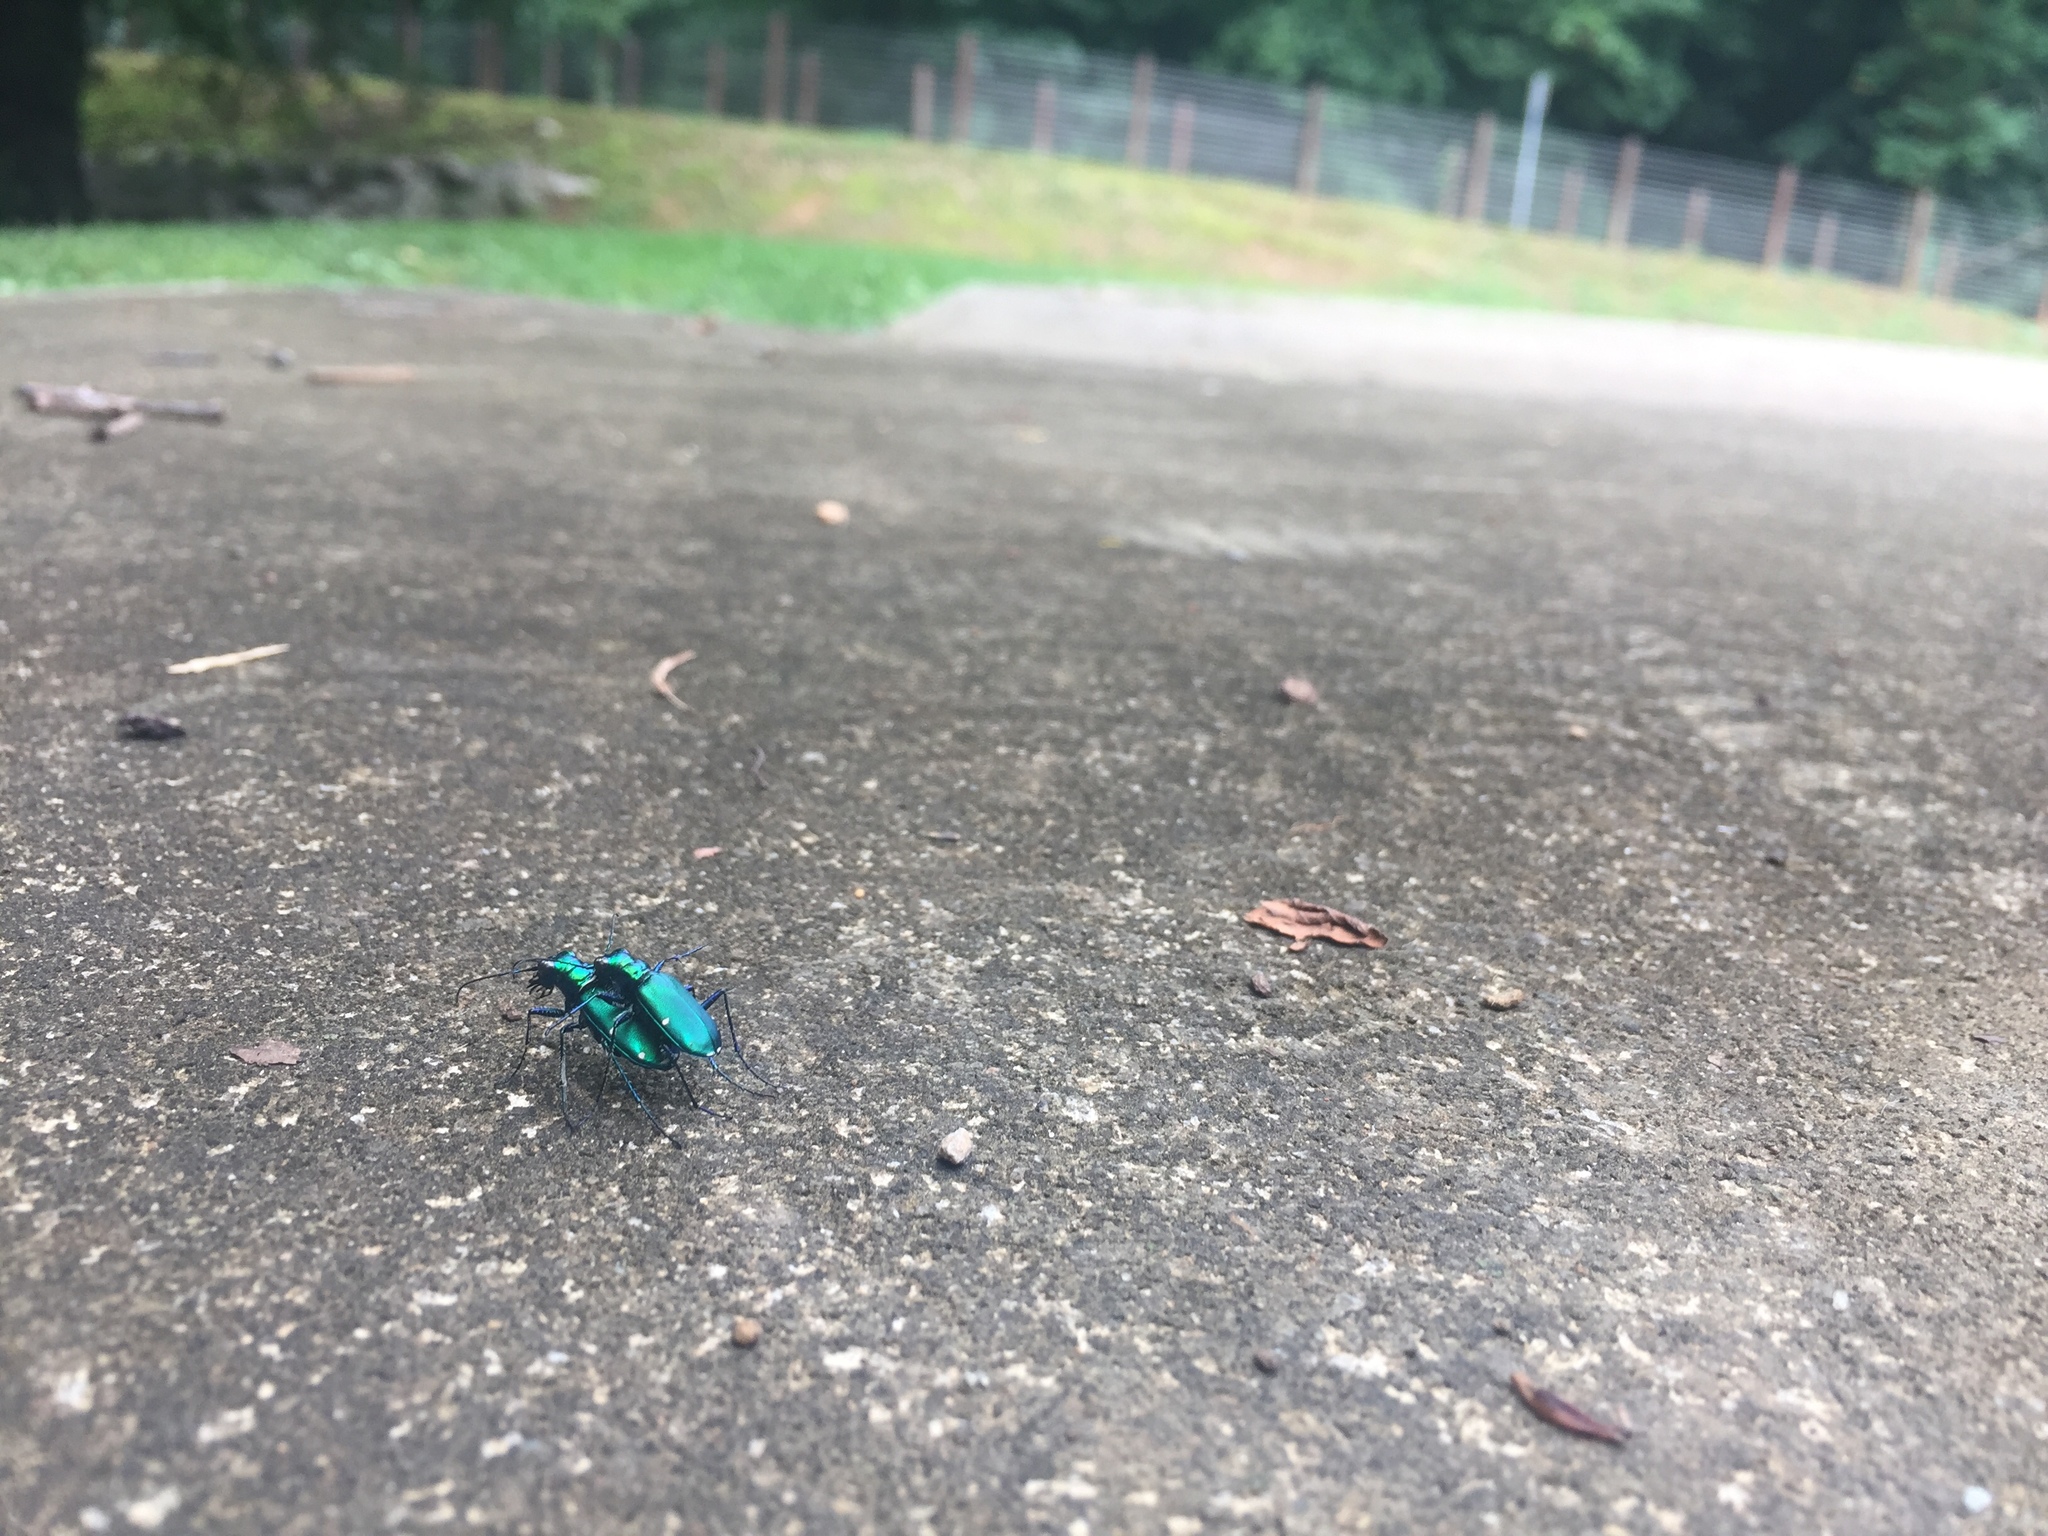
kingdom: Animalia
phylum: Arthropoda
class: Insecta
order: Coleoptera
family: Carabidae
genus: Cicindela
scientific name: Cicindela sexguttata
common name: Six-spotted tiger beetle
